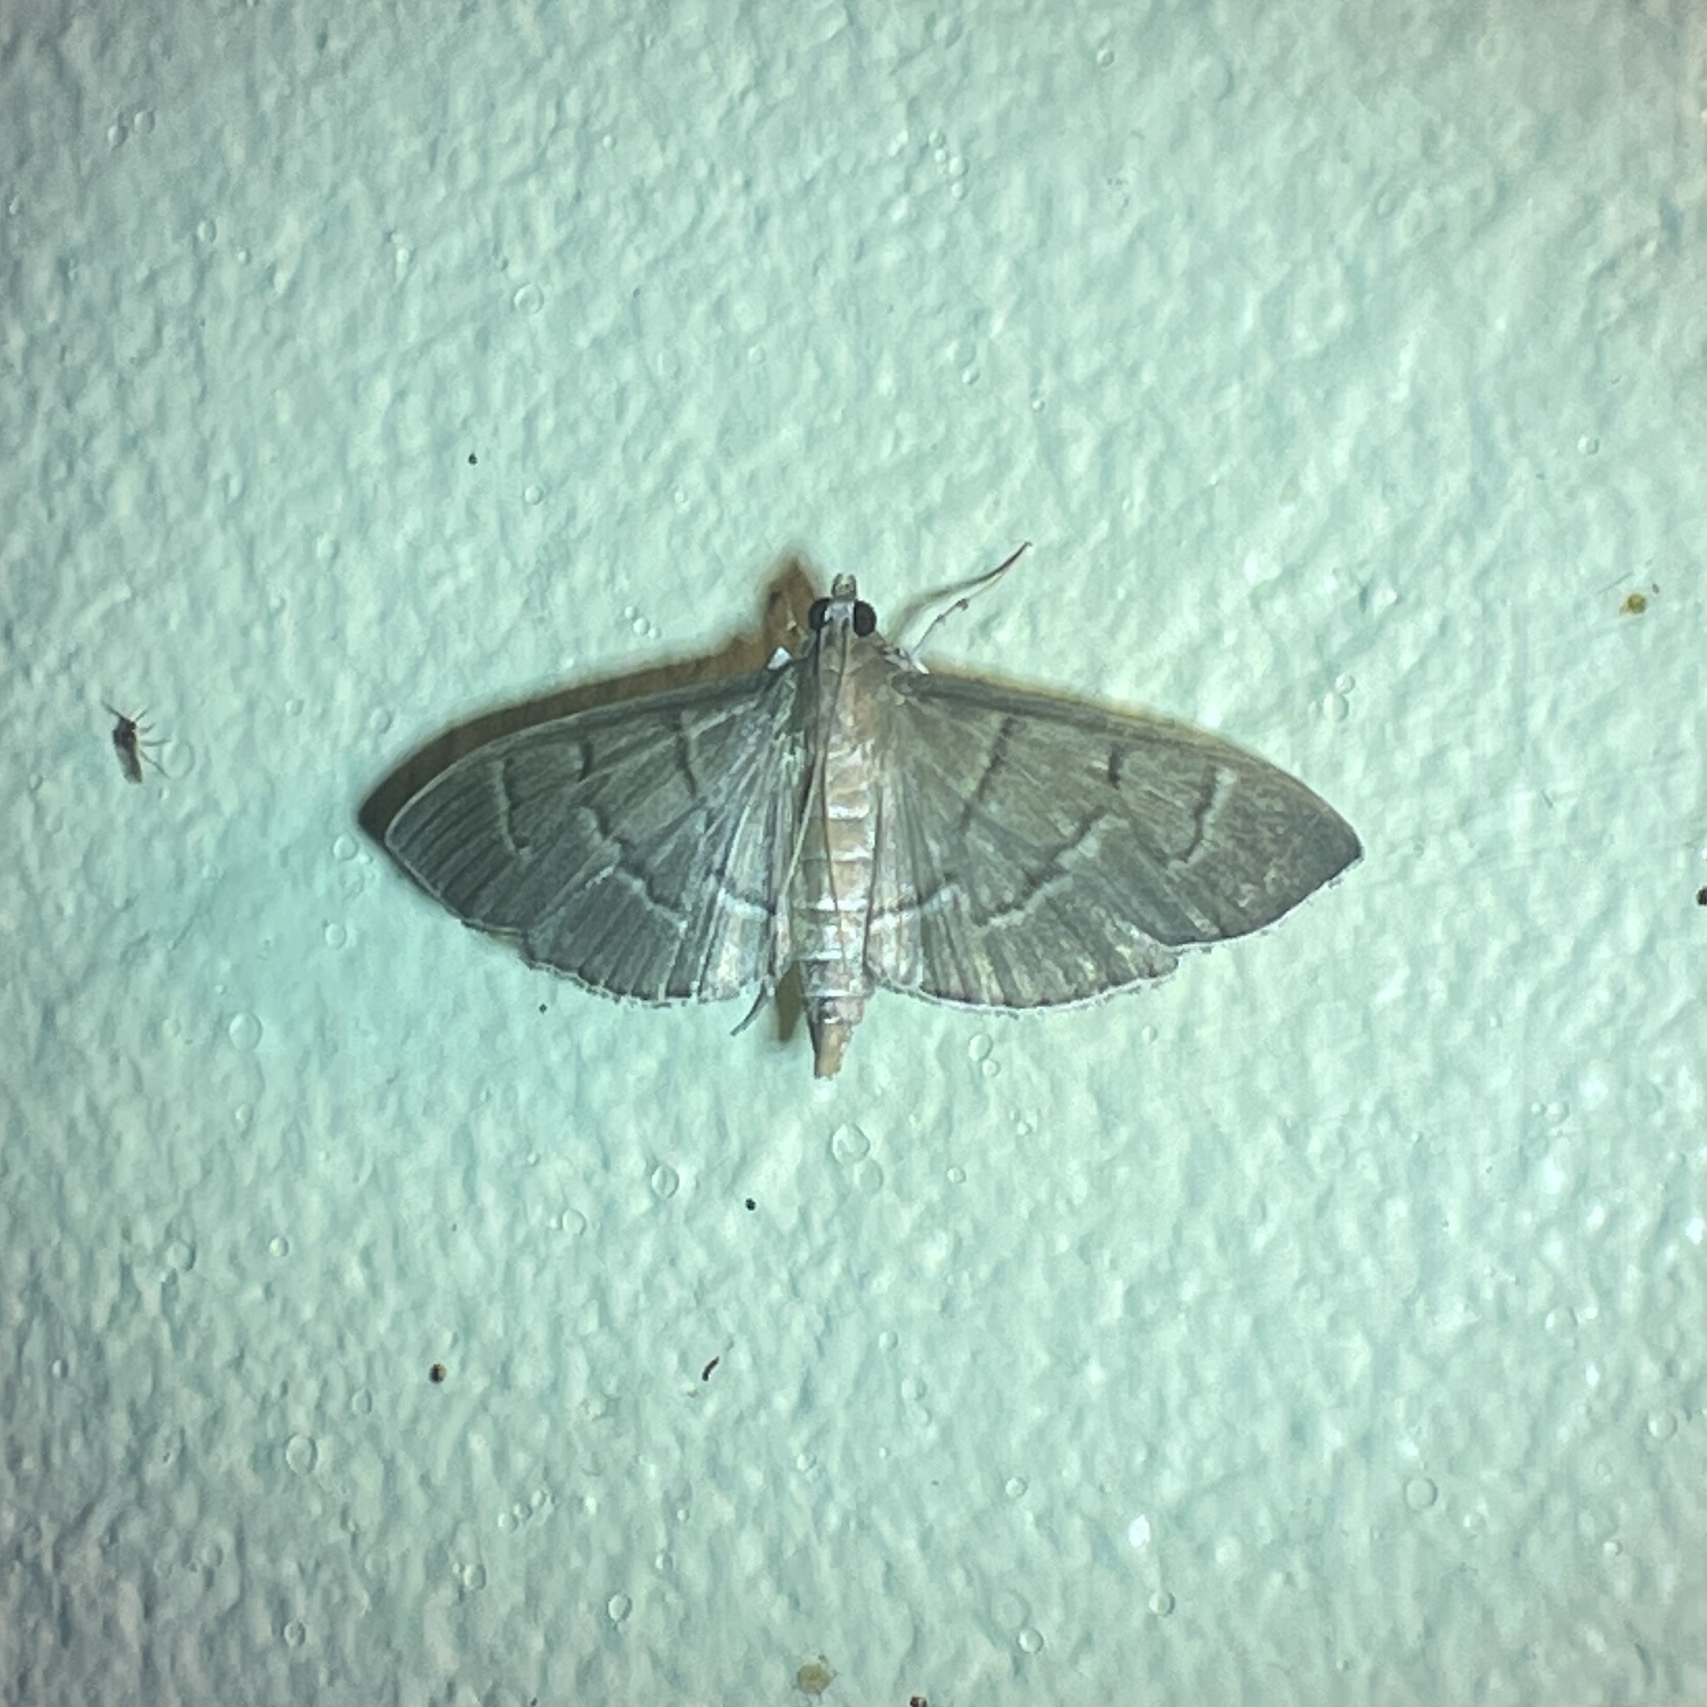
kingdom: Animalia
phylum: Arthropoda
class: Insecta
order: Lepidoptera
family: Crambidae
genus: Herpetogramma
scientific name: Herpetogramma semilaniata
